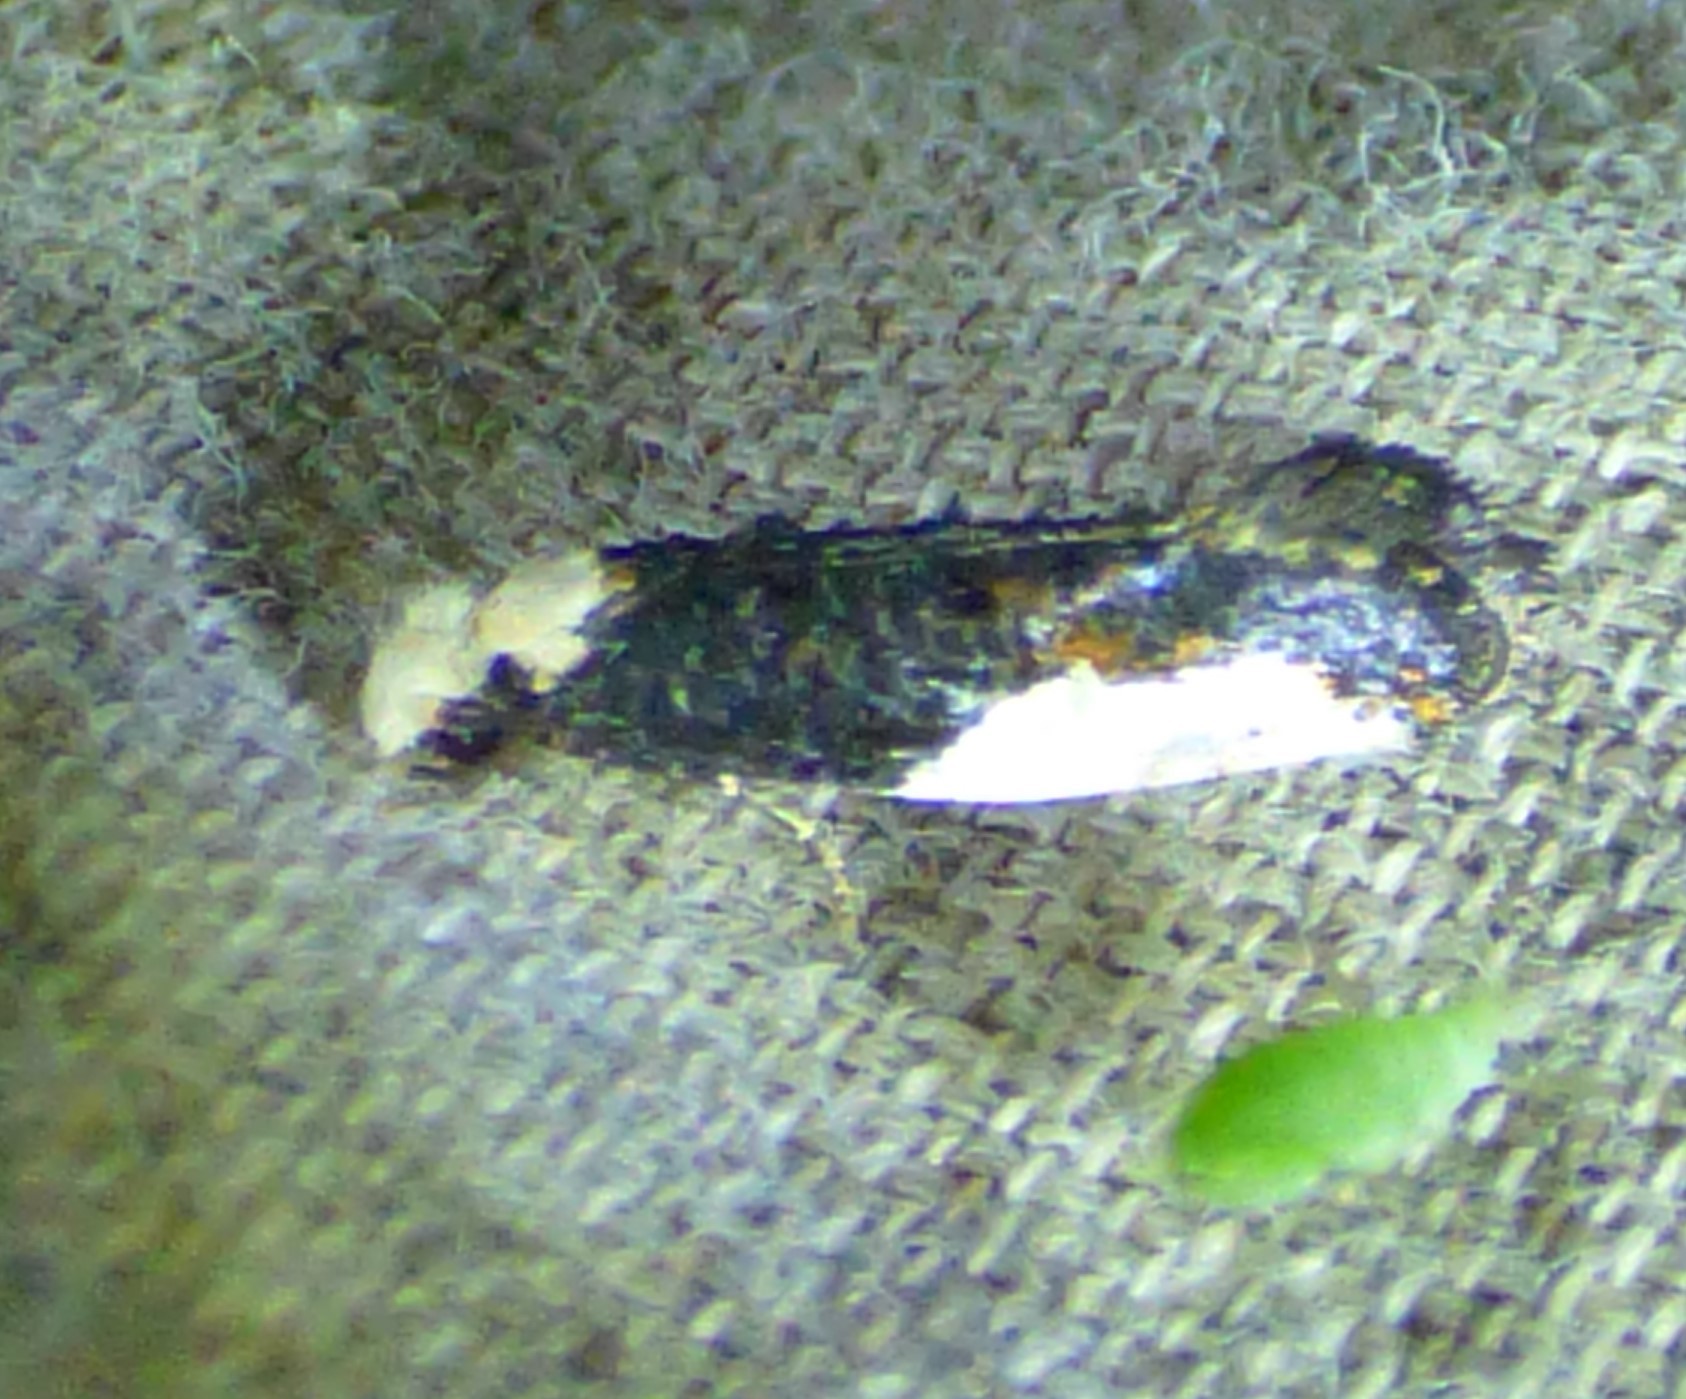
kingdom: Animalia
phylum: Arthropoda
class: Insecta
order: Lepidoptera
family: Tineidae
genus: Monopis
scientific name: Monopis longella
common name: Pavlovski's monopis moth
